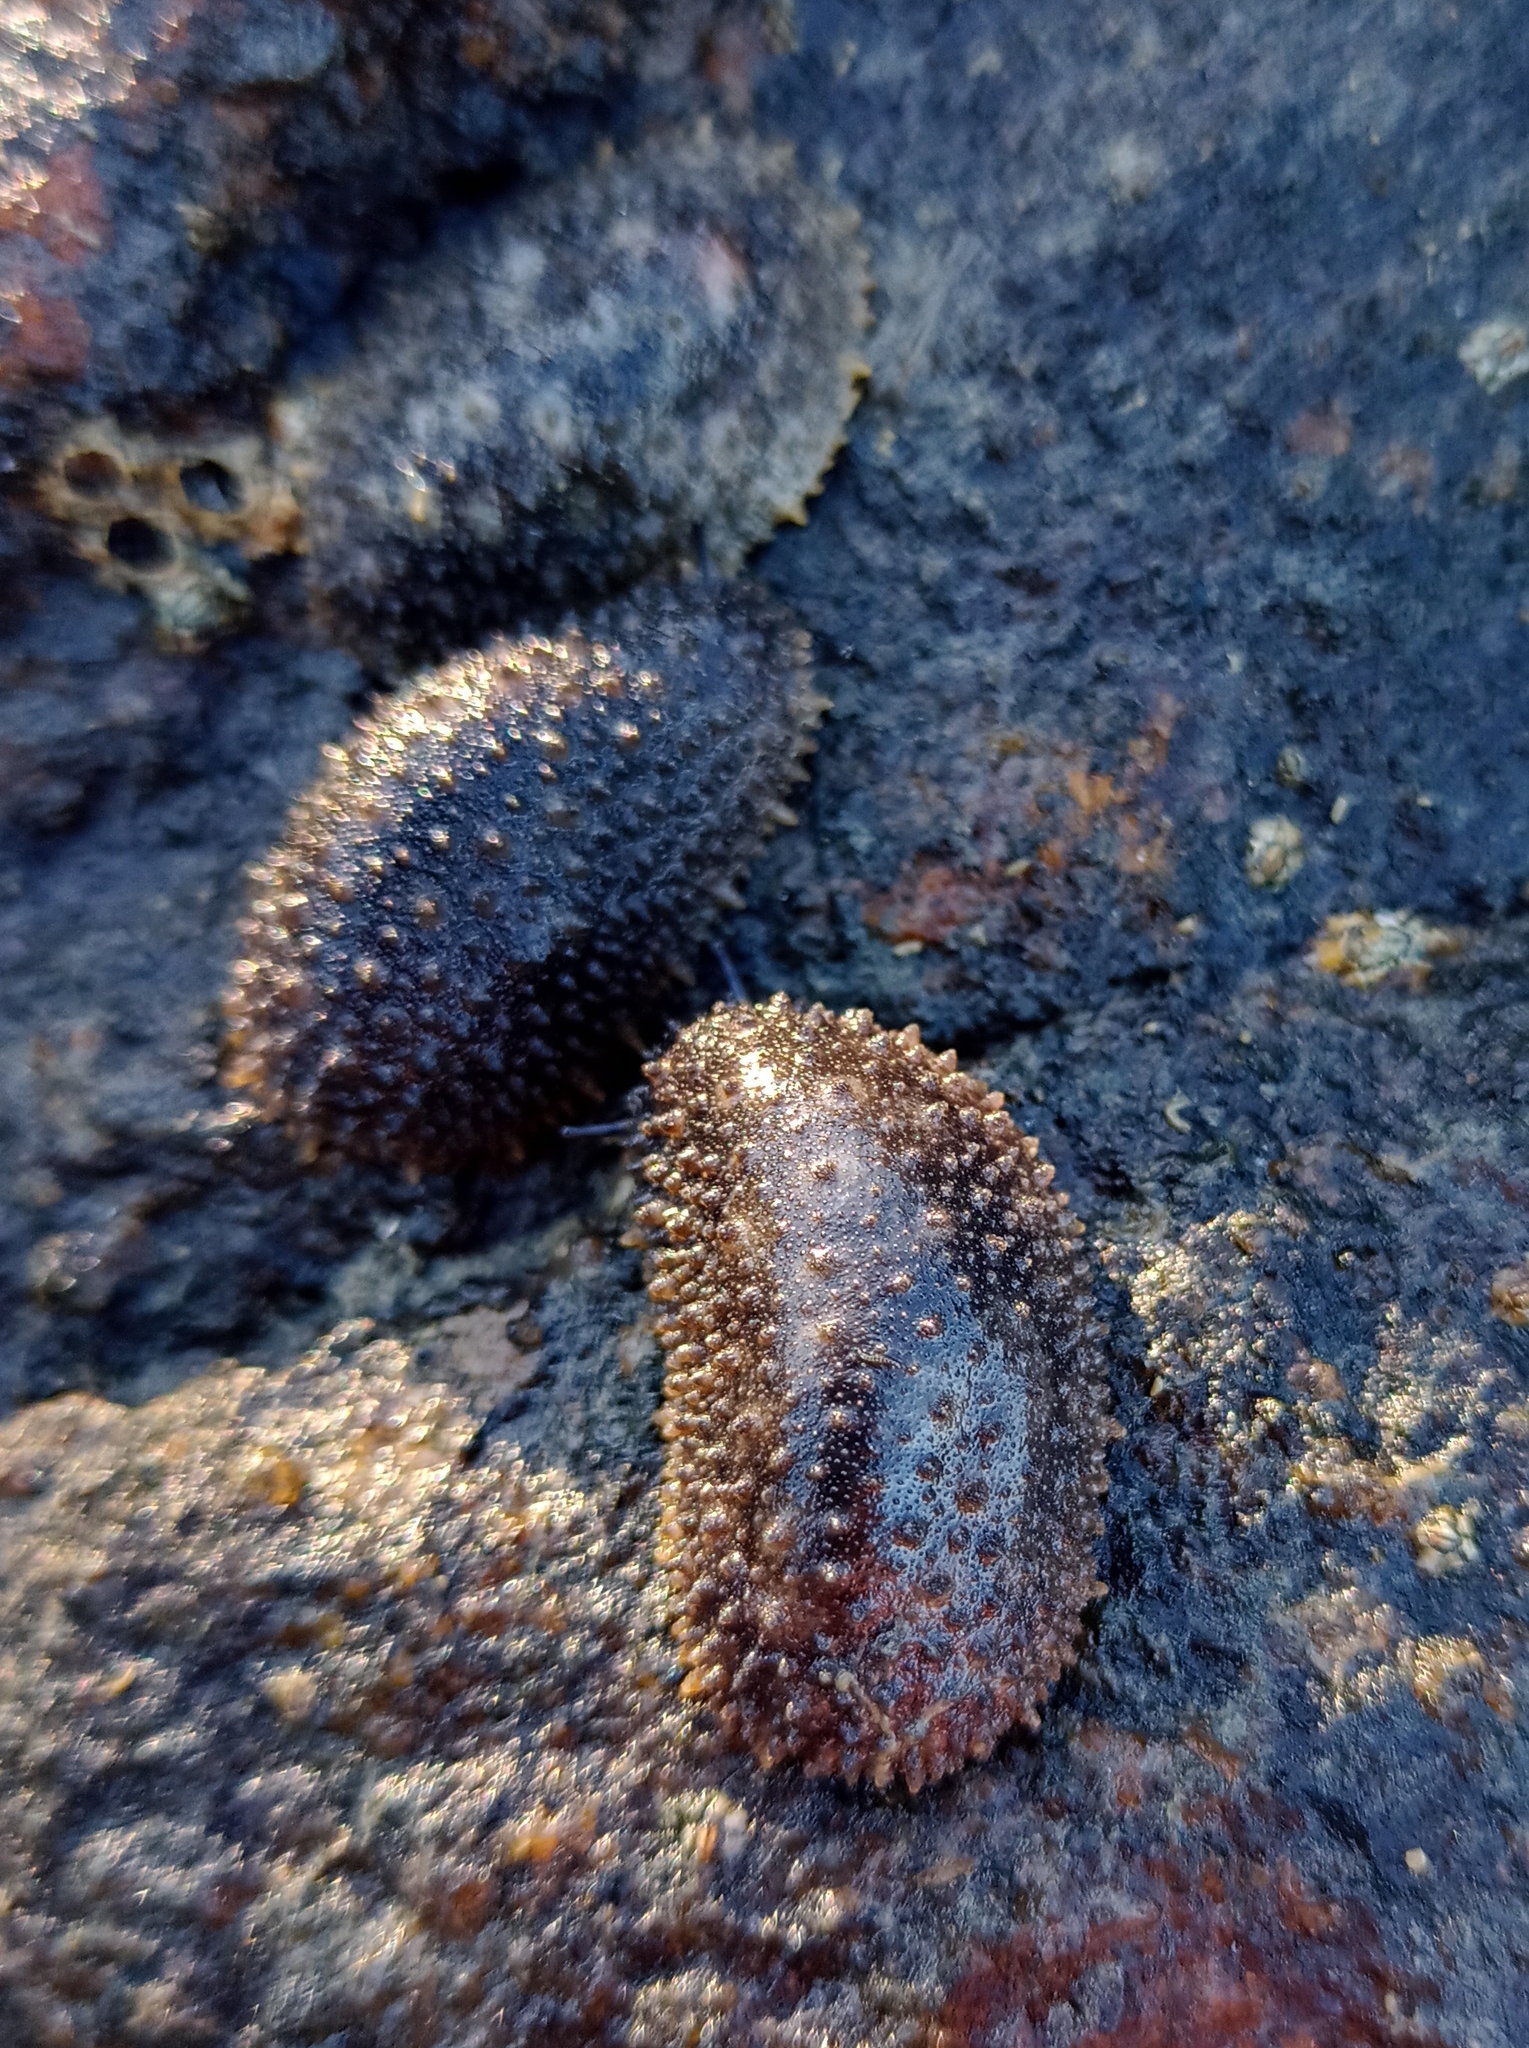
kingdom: Animalia
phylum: Mollusca
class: Gastropoda
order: Systellommatophora
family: Onchidiidae
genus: Onchidella
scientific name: Onchidella incisa
